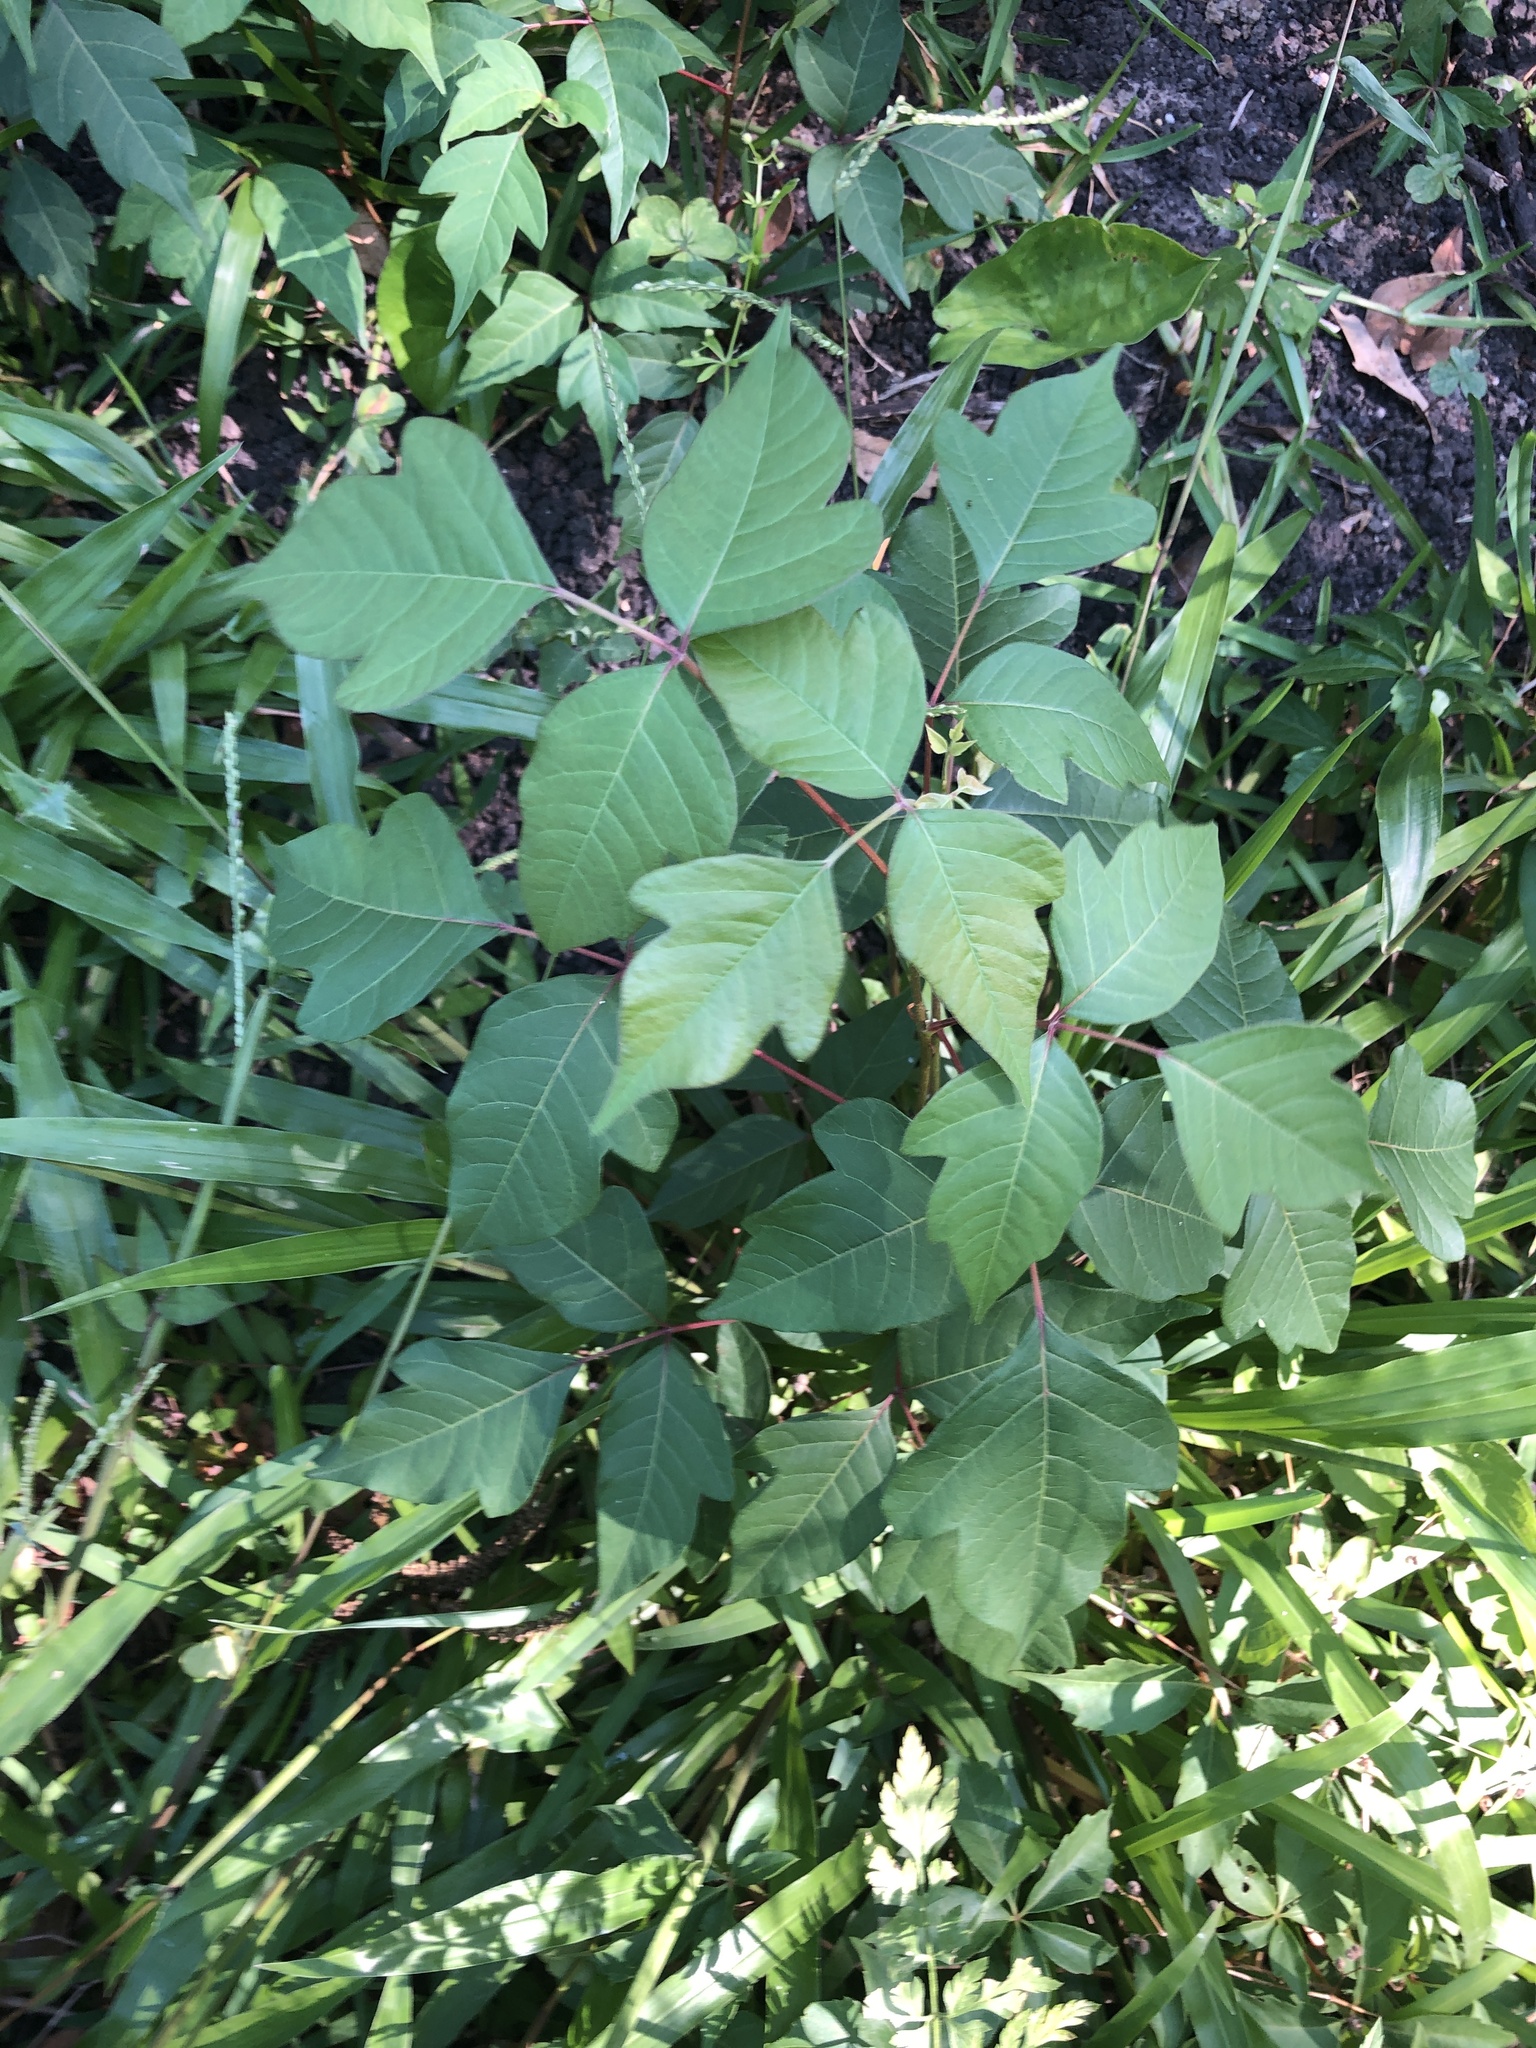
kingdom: Plantae
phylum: Tracheophyta
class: Magnoliopsida
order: Sapindales
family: Anacardiaceae
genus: Toxicodendron
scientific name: Toxicodendron radicans
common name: Poison ivy
